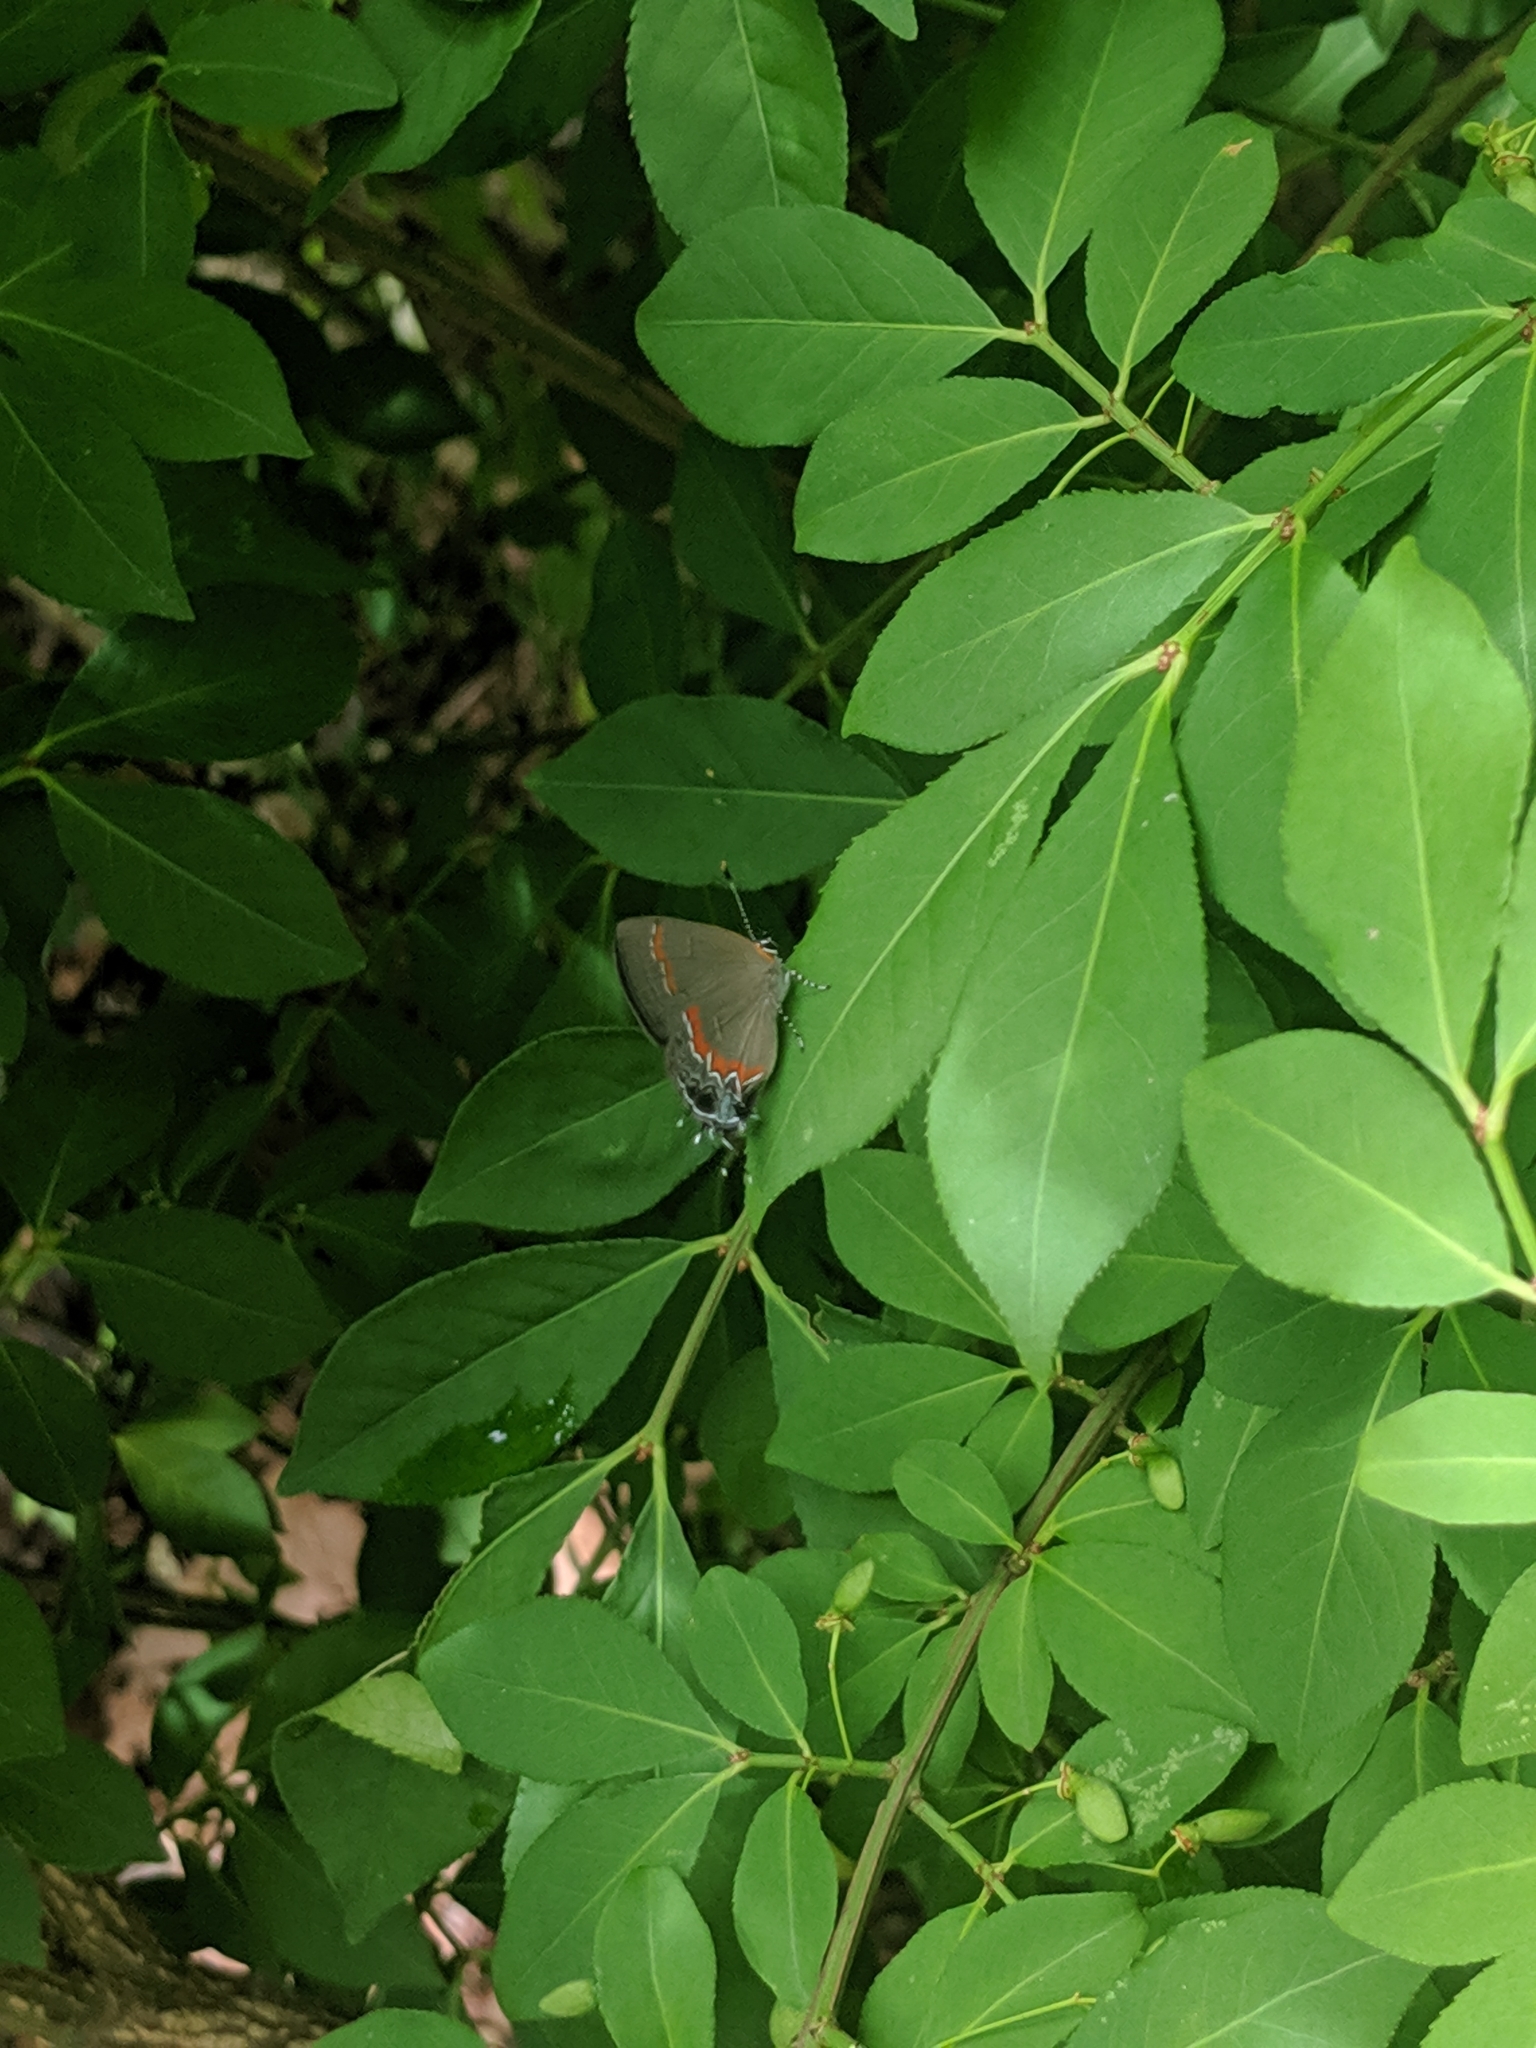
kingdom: Animalia
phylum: Arthropoda
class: Insecta
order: Lepidoptera
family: Lycaenidae
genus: Calycopis
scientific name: Calycopis cecrops
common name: Red-banded hairstreak
